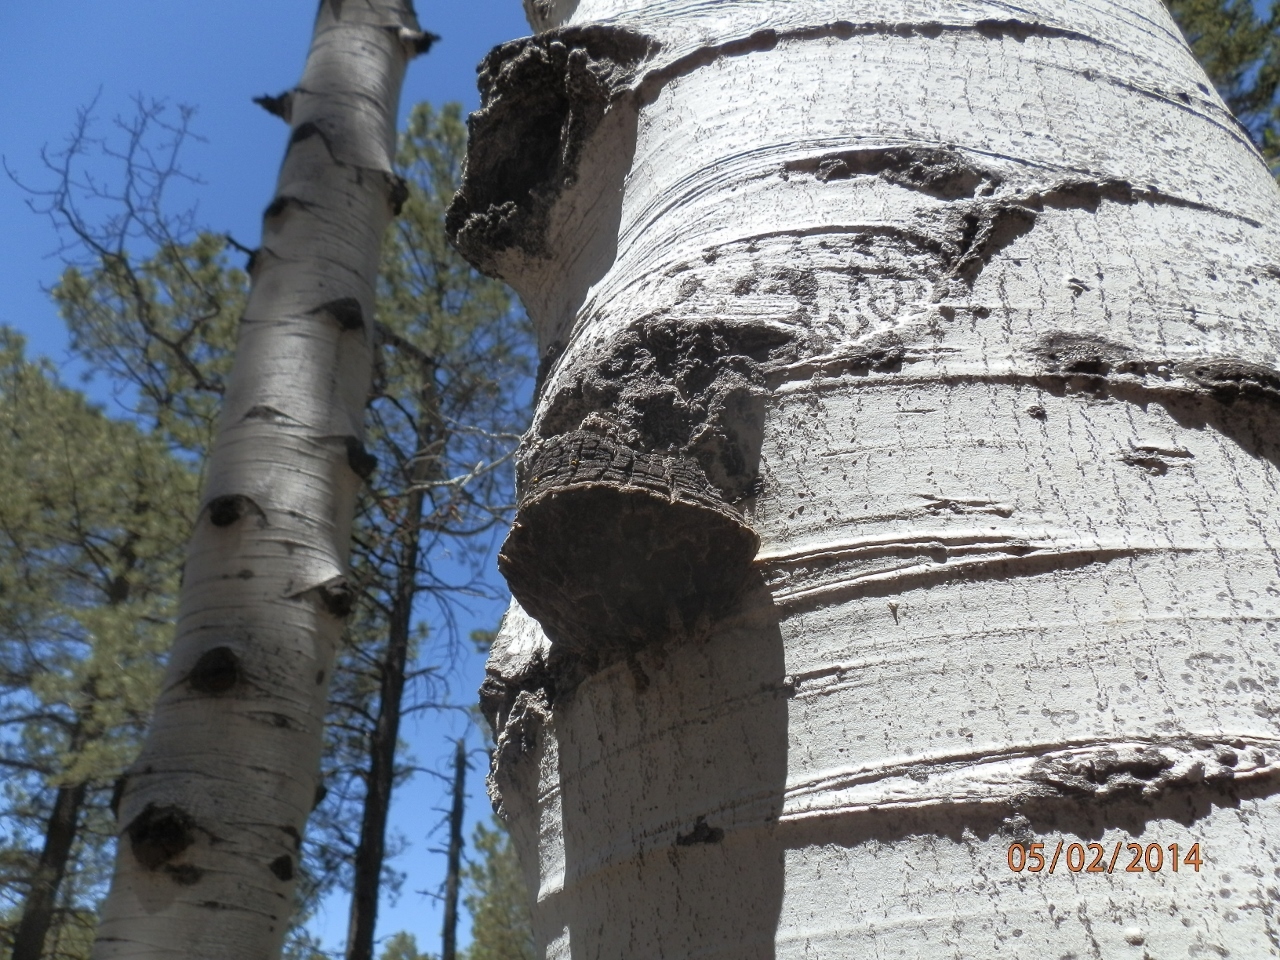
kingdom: Fungi
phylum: Basidiomycota
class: Agaricomycetes
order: Hymenochaetales
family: Hymenochaetaceae
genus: Phellinus
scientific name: Phellinus tremulae
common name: Aspen bracket
